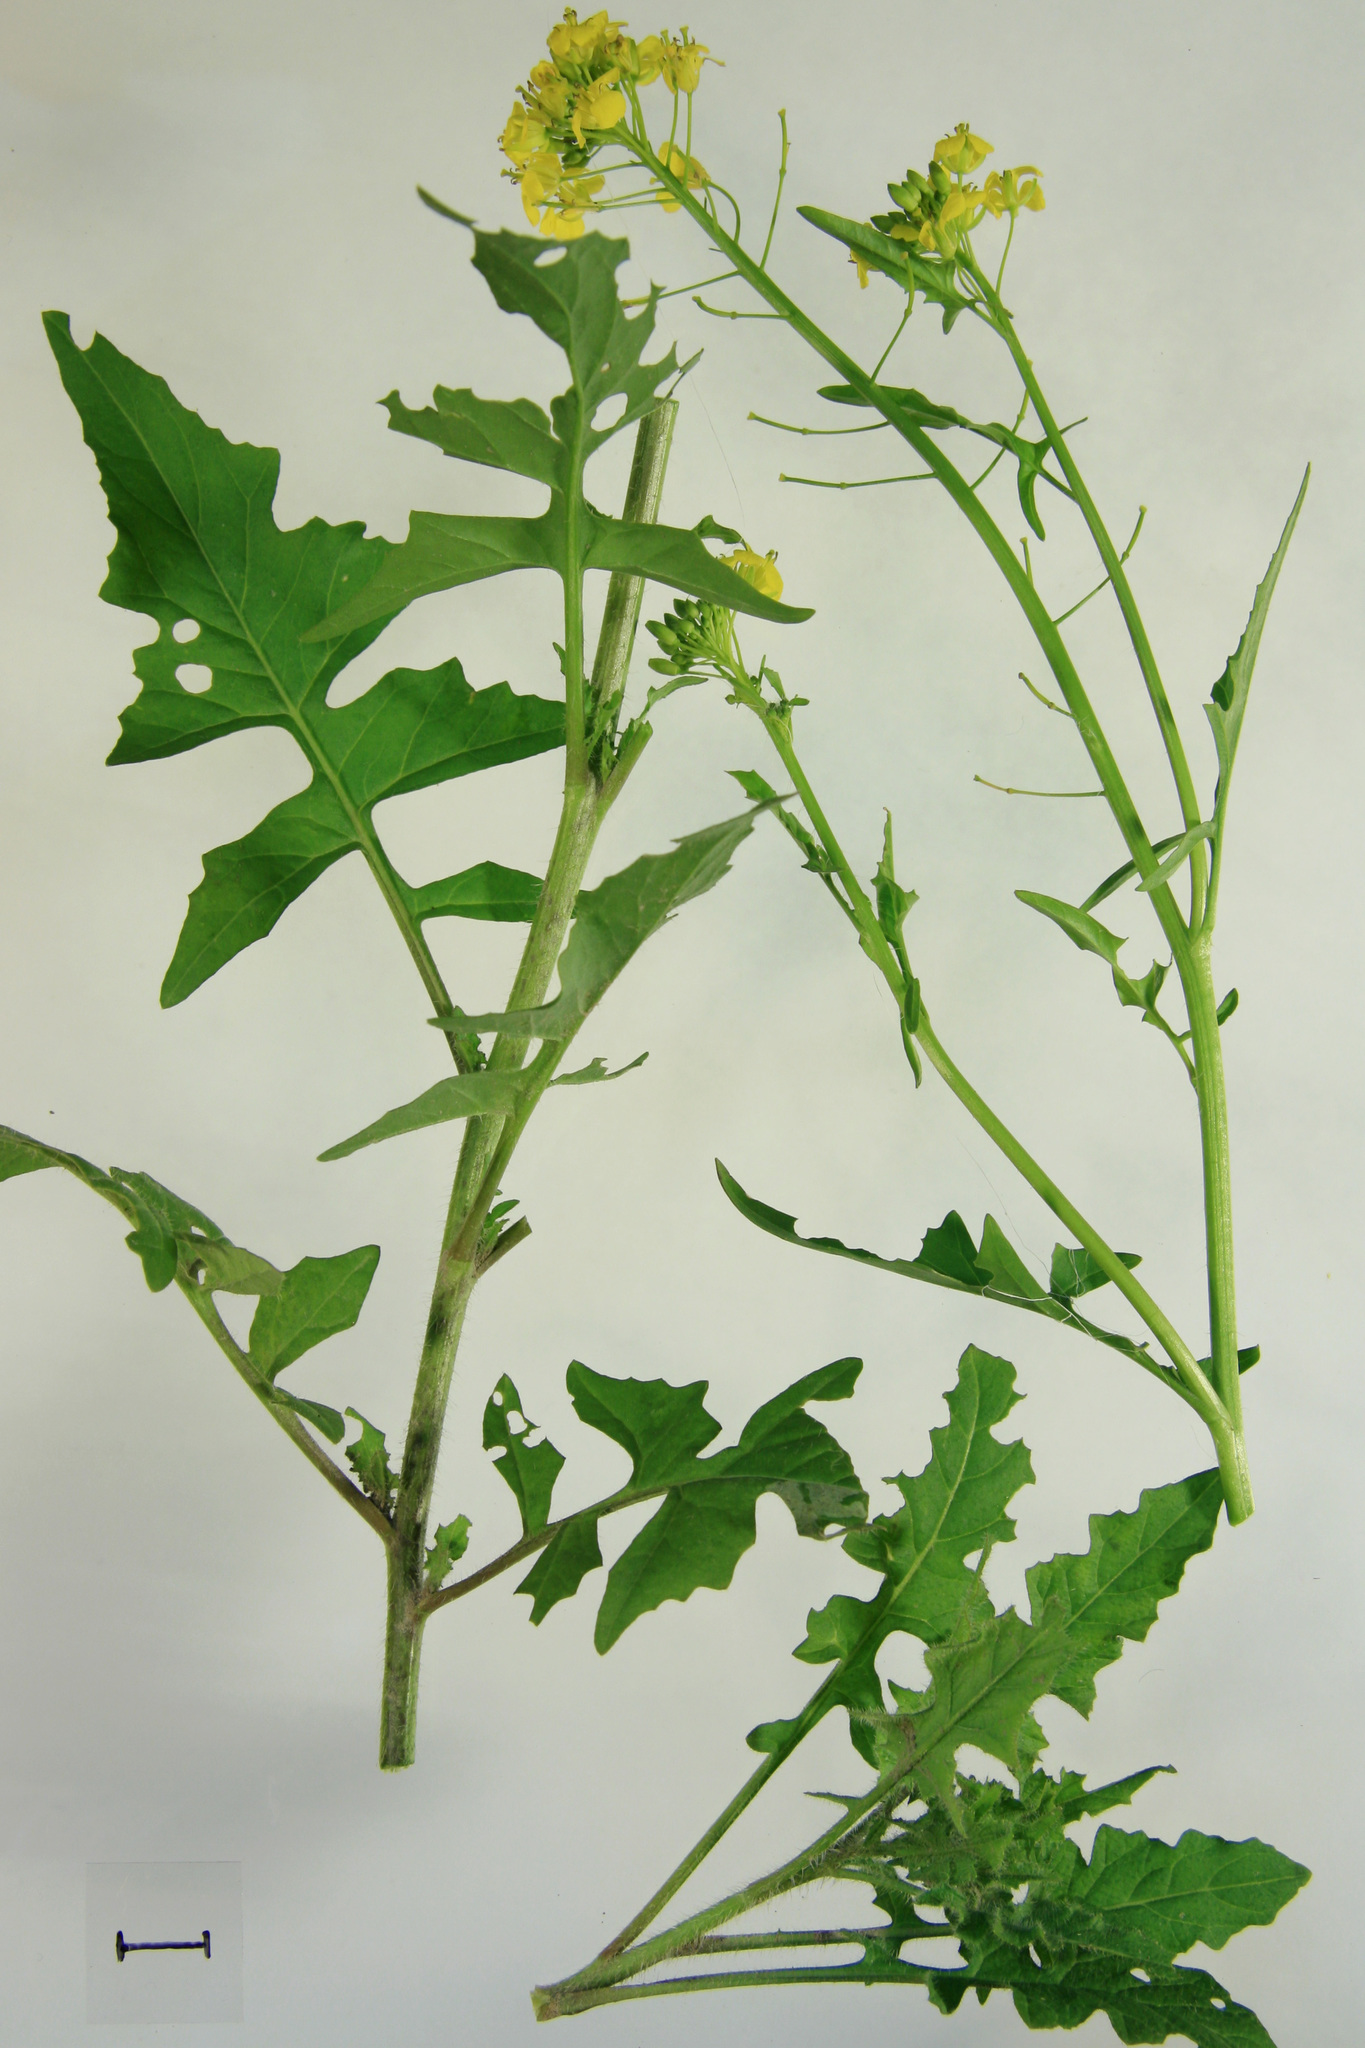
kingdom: Plantae
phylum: Tracheophyta
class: Magnoliopsida
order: Brassicales
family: Brassicaceae
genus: Sisymbrium
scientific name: Sisymbrium loeselii
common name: False london-rocket
